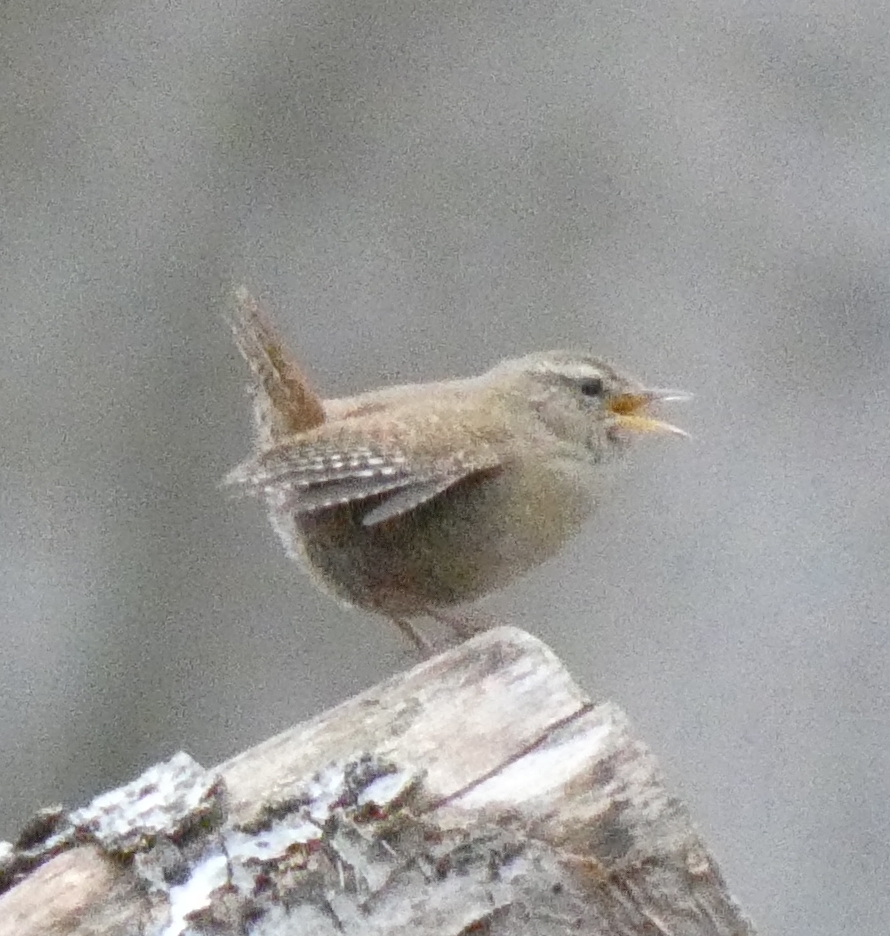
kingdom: Animalia
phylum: Chordata
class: Aves
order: Passeriformes
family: Troglodytidae
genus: Troglodytes
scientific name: Troglodytes troglodytes
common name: Eurasian wren
